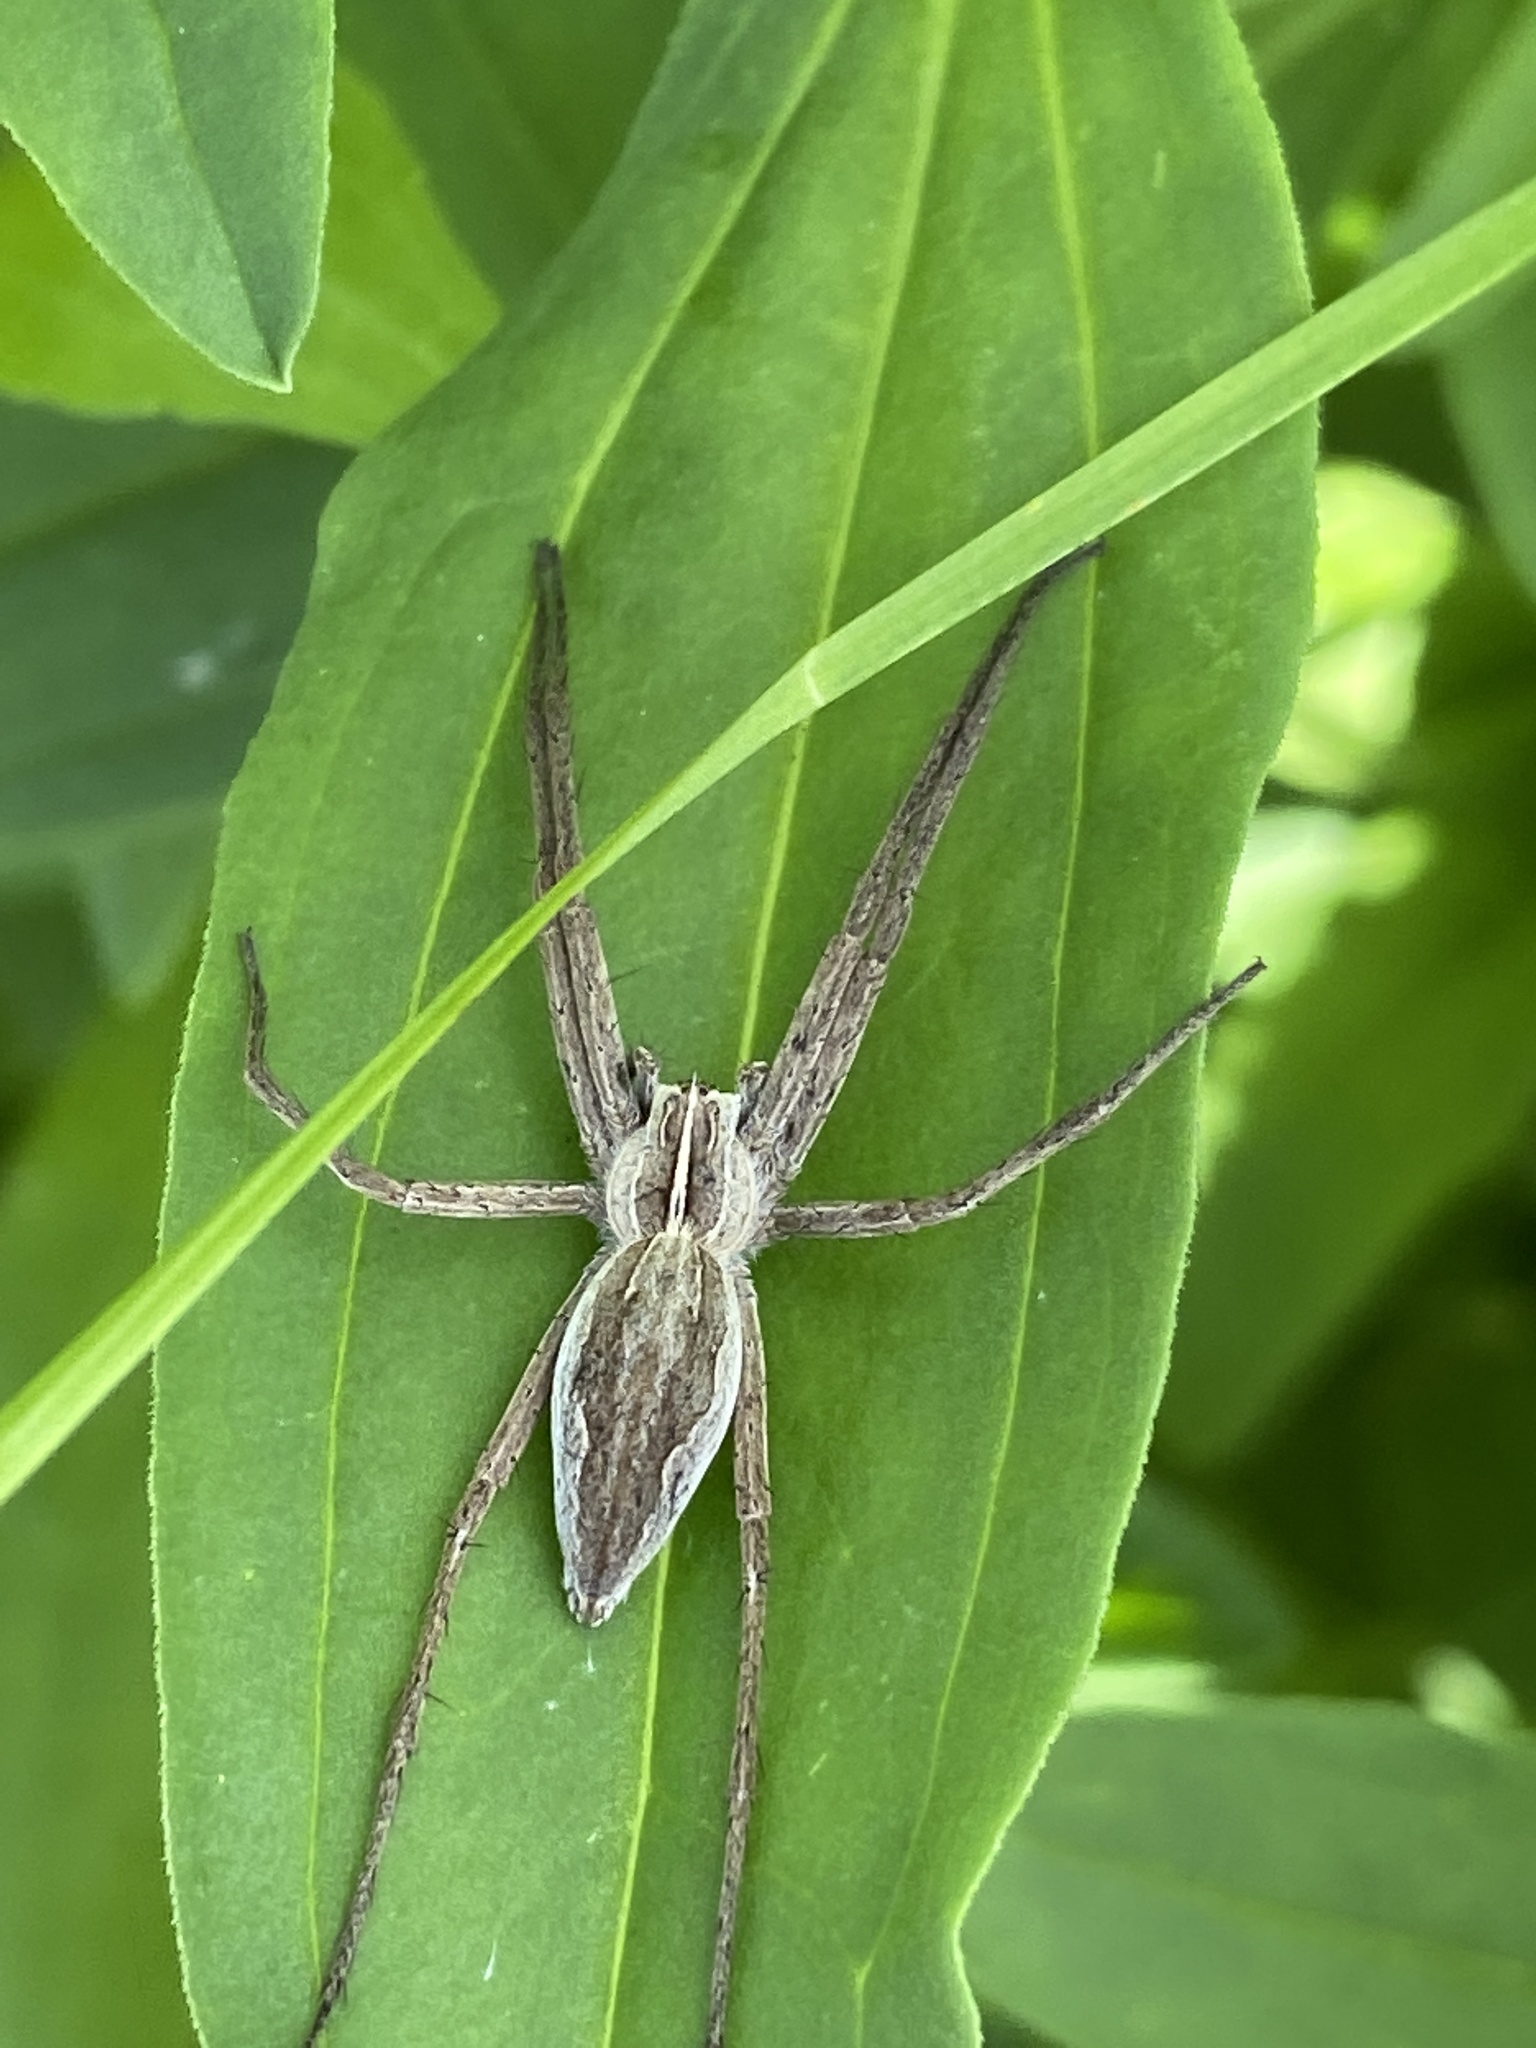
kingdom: Animalia
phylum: Arthropoda
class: Arachnida
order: Araneae
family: Pisauridae
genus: Pisaura
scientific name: Pisaura mirabilis
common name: Tent spider
